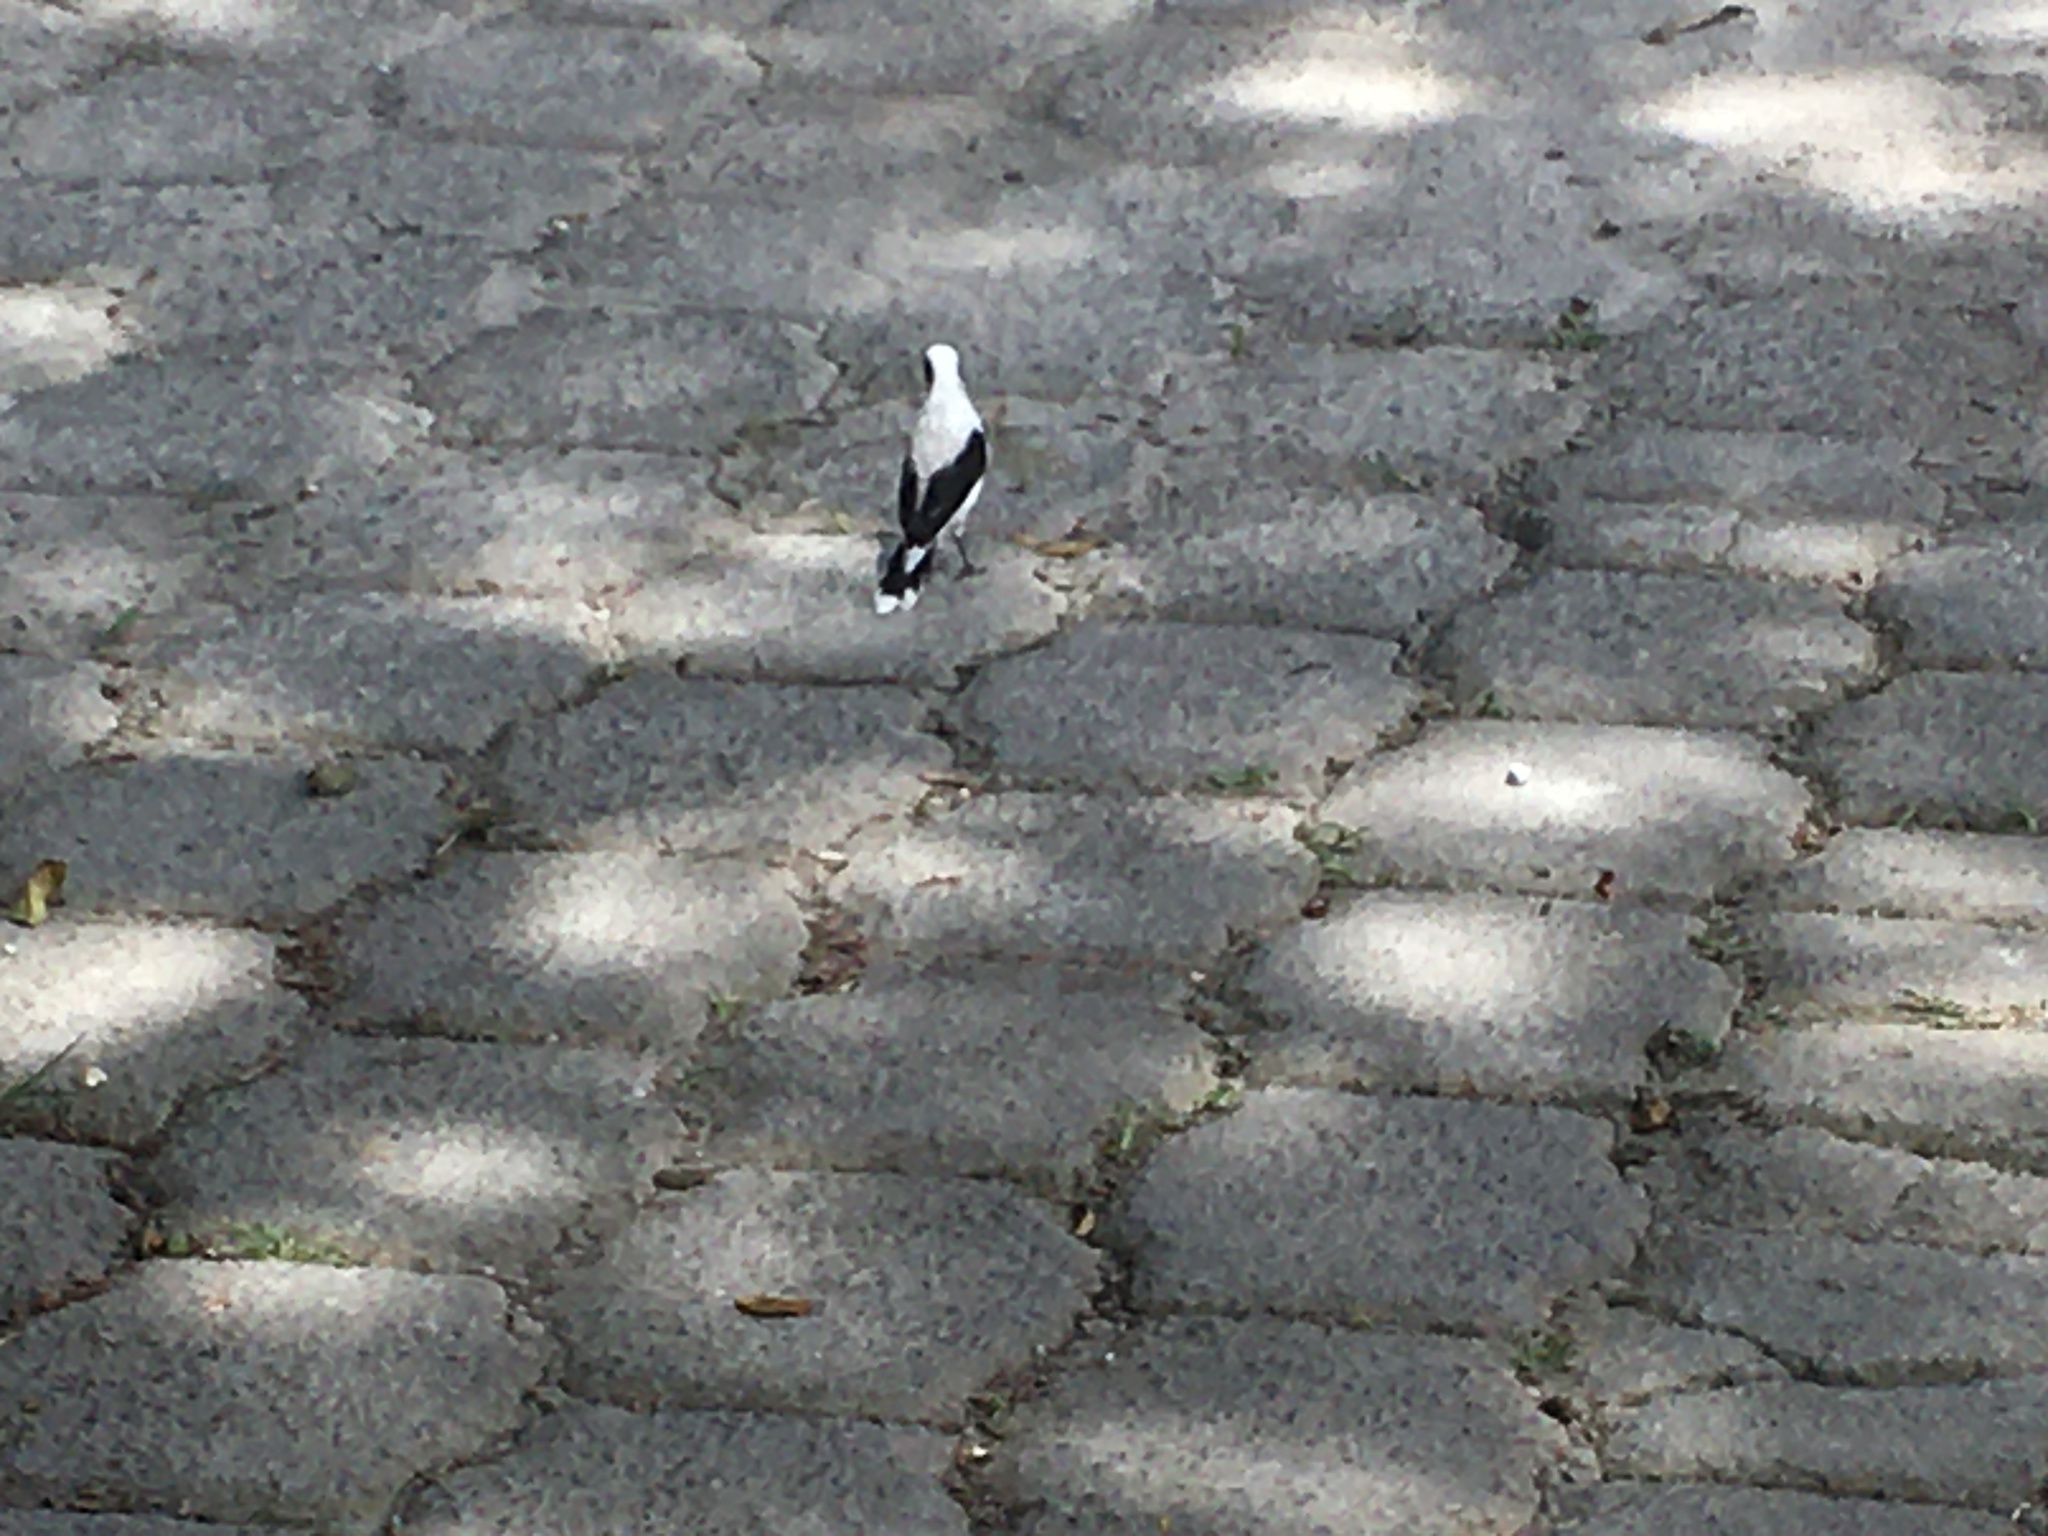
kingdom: Animalia
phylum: Chordata
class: Aves
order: Passeriformes
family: Tyrannidae
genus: Fluvicola
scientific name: Fluvicola nengeta
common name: Masked water tyrant
